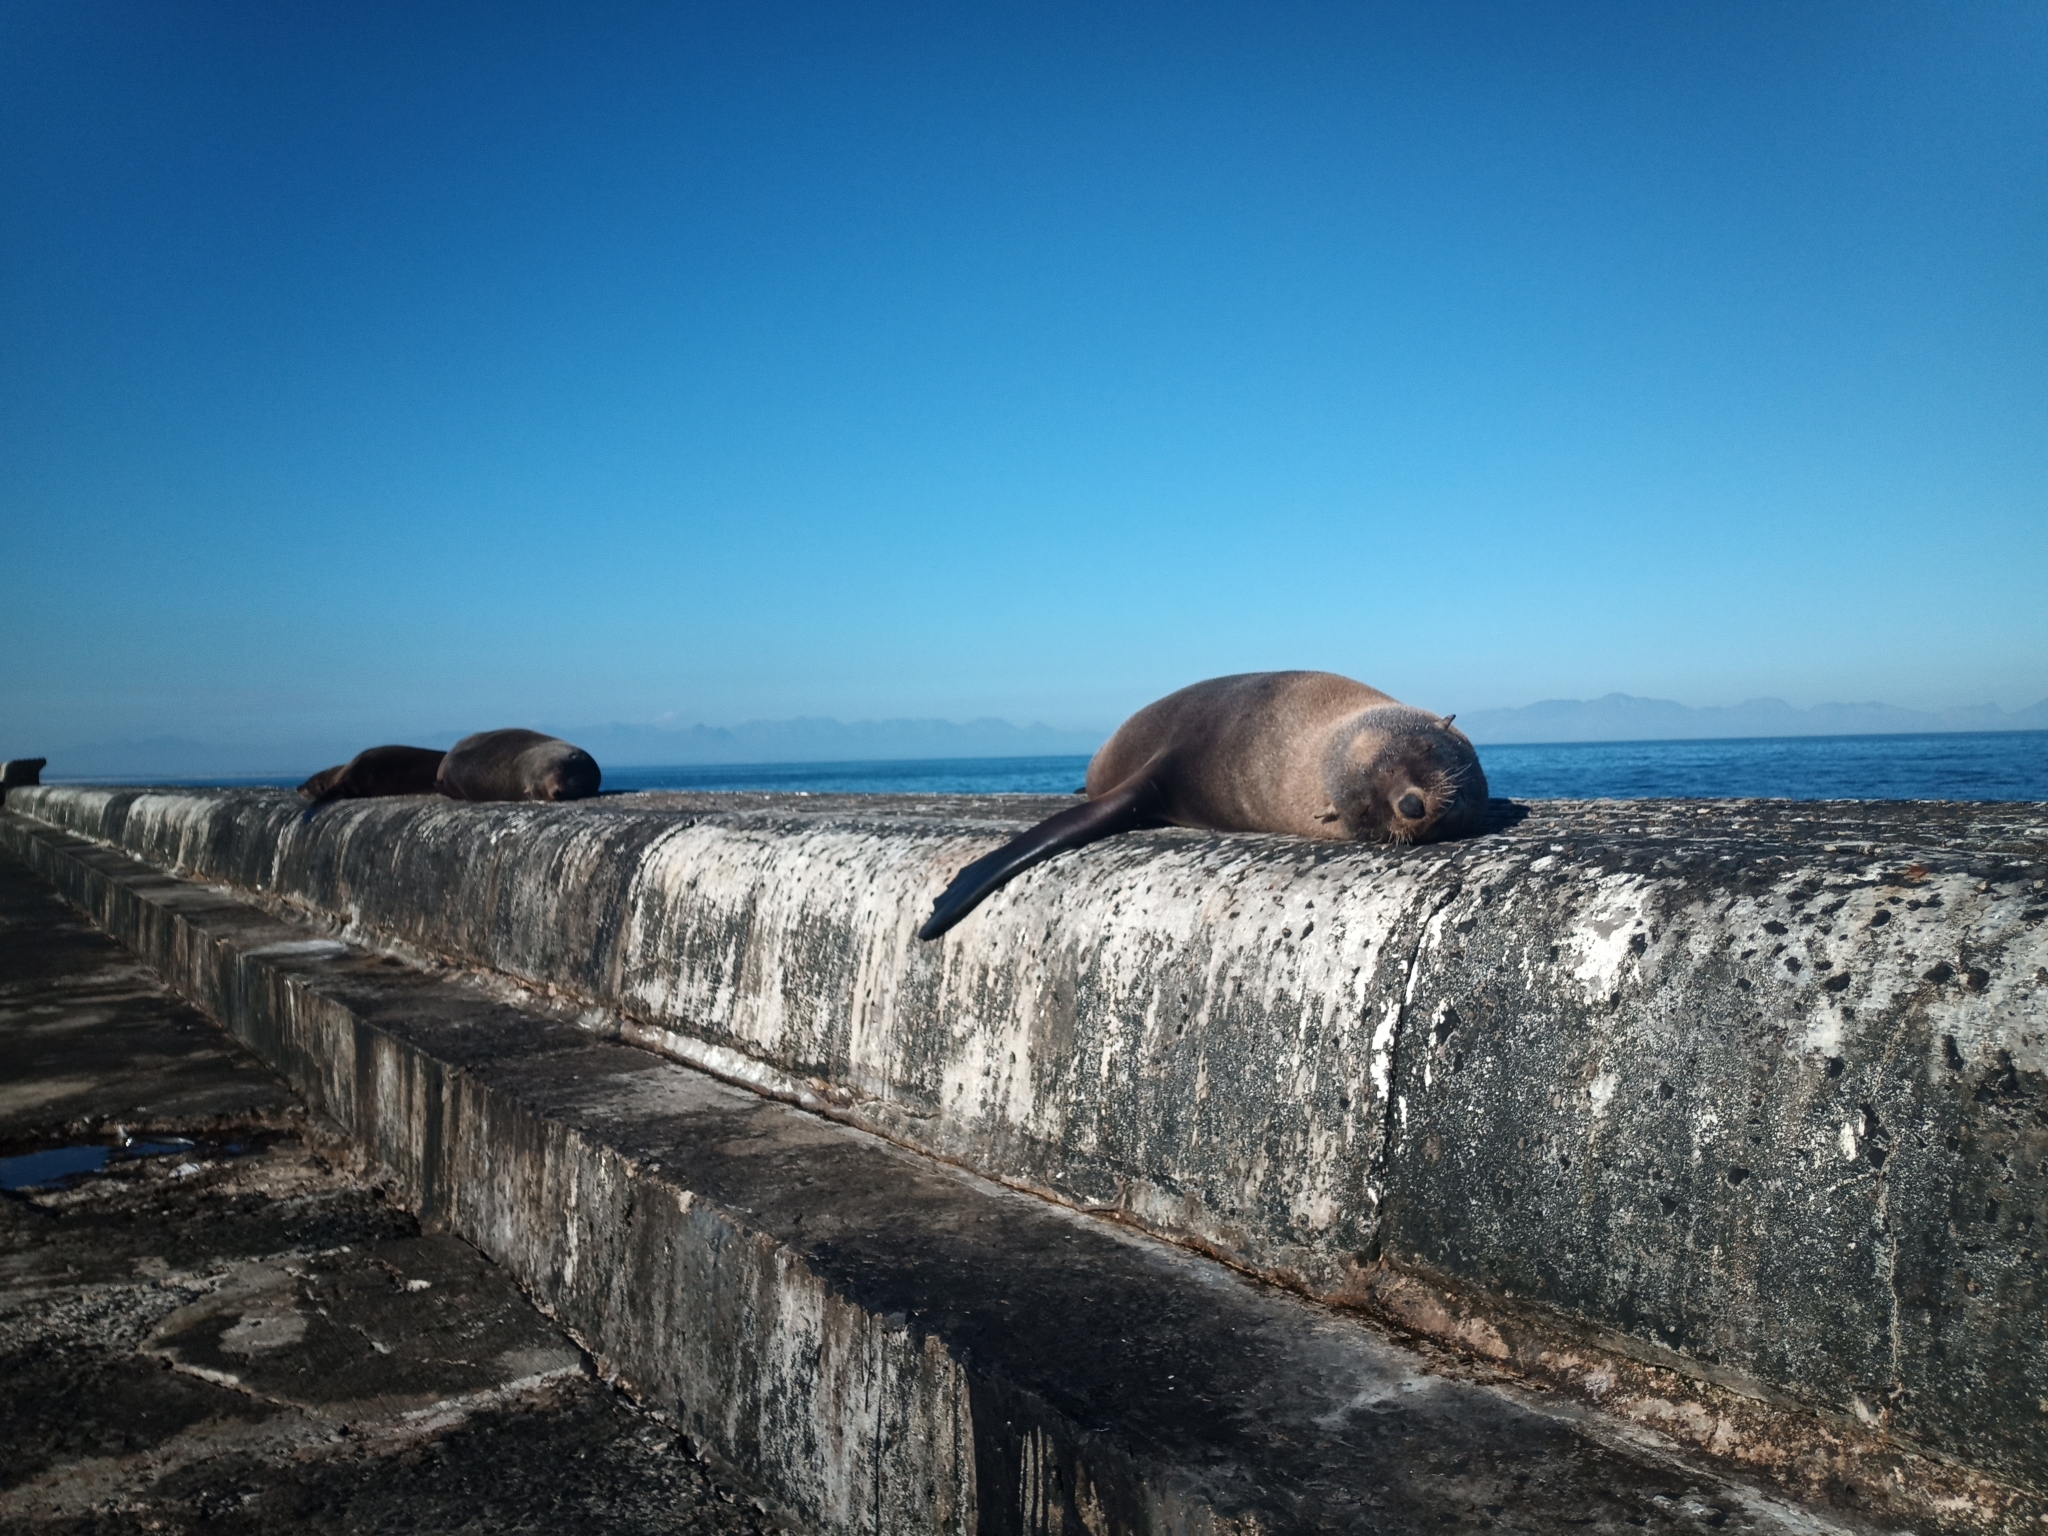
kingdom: Animalia
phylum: Chordata
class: Mammalia
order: Carnivora
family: Otariidae
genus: Arctocephalus
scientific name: Arctocephalus pusillus
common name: Brown fur seal
